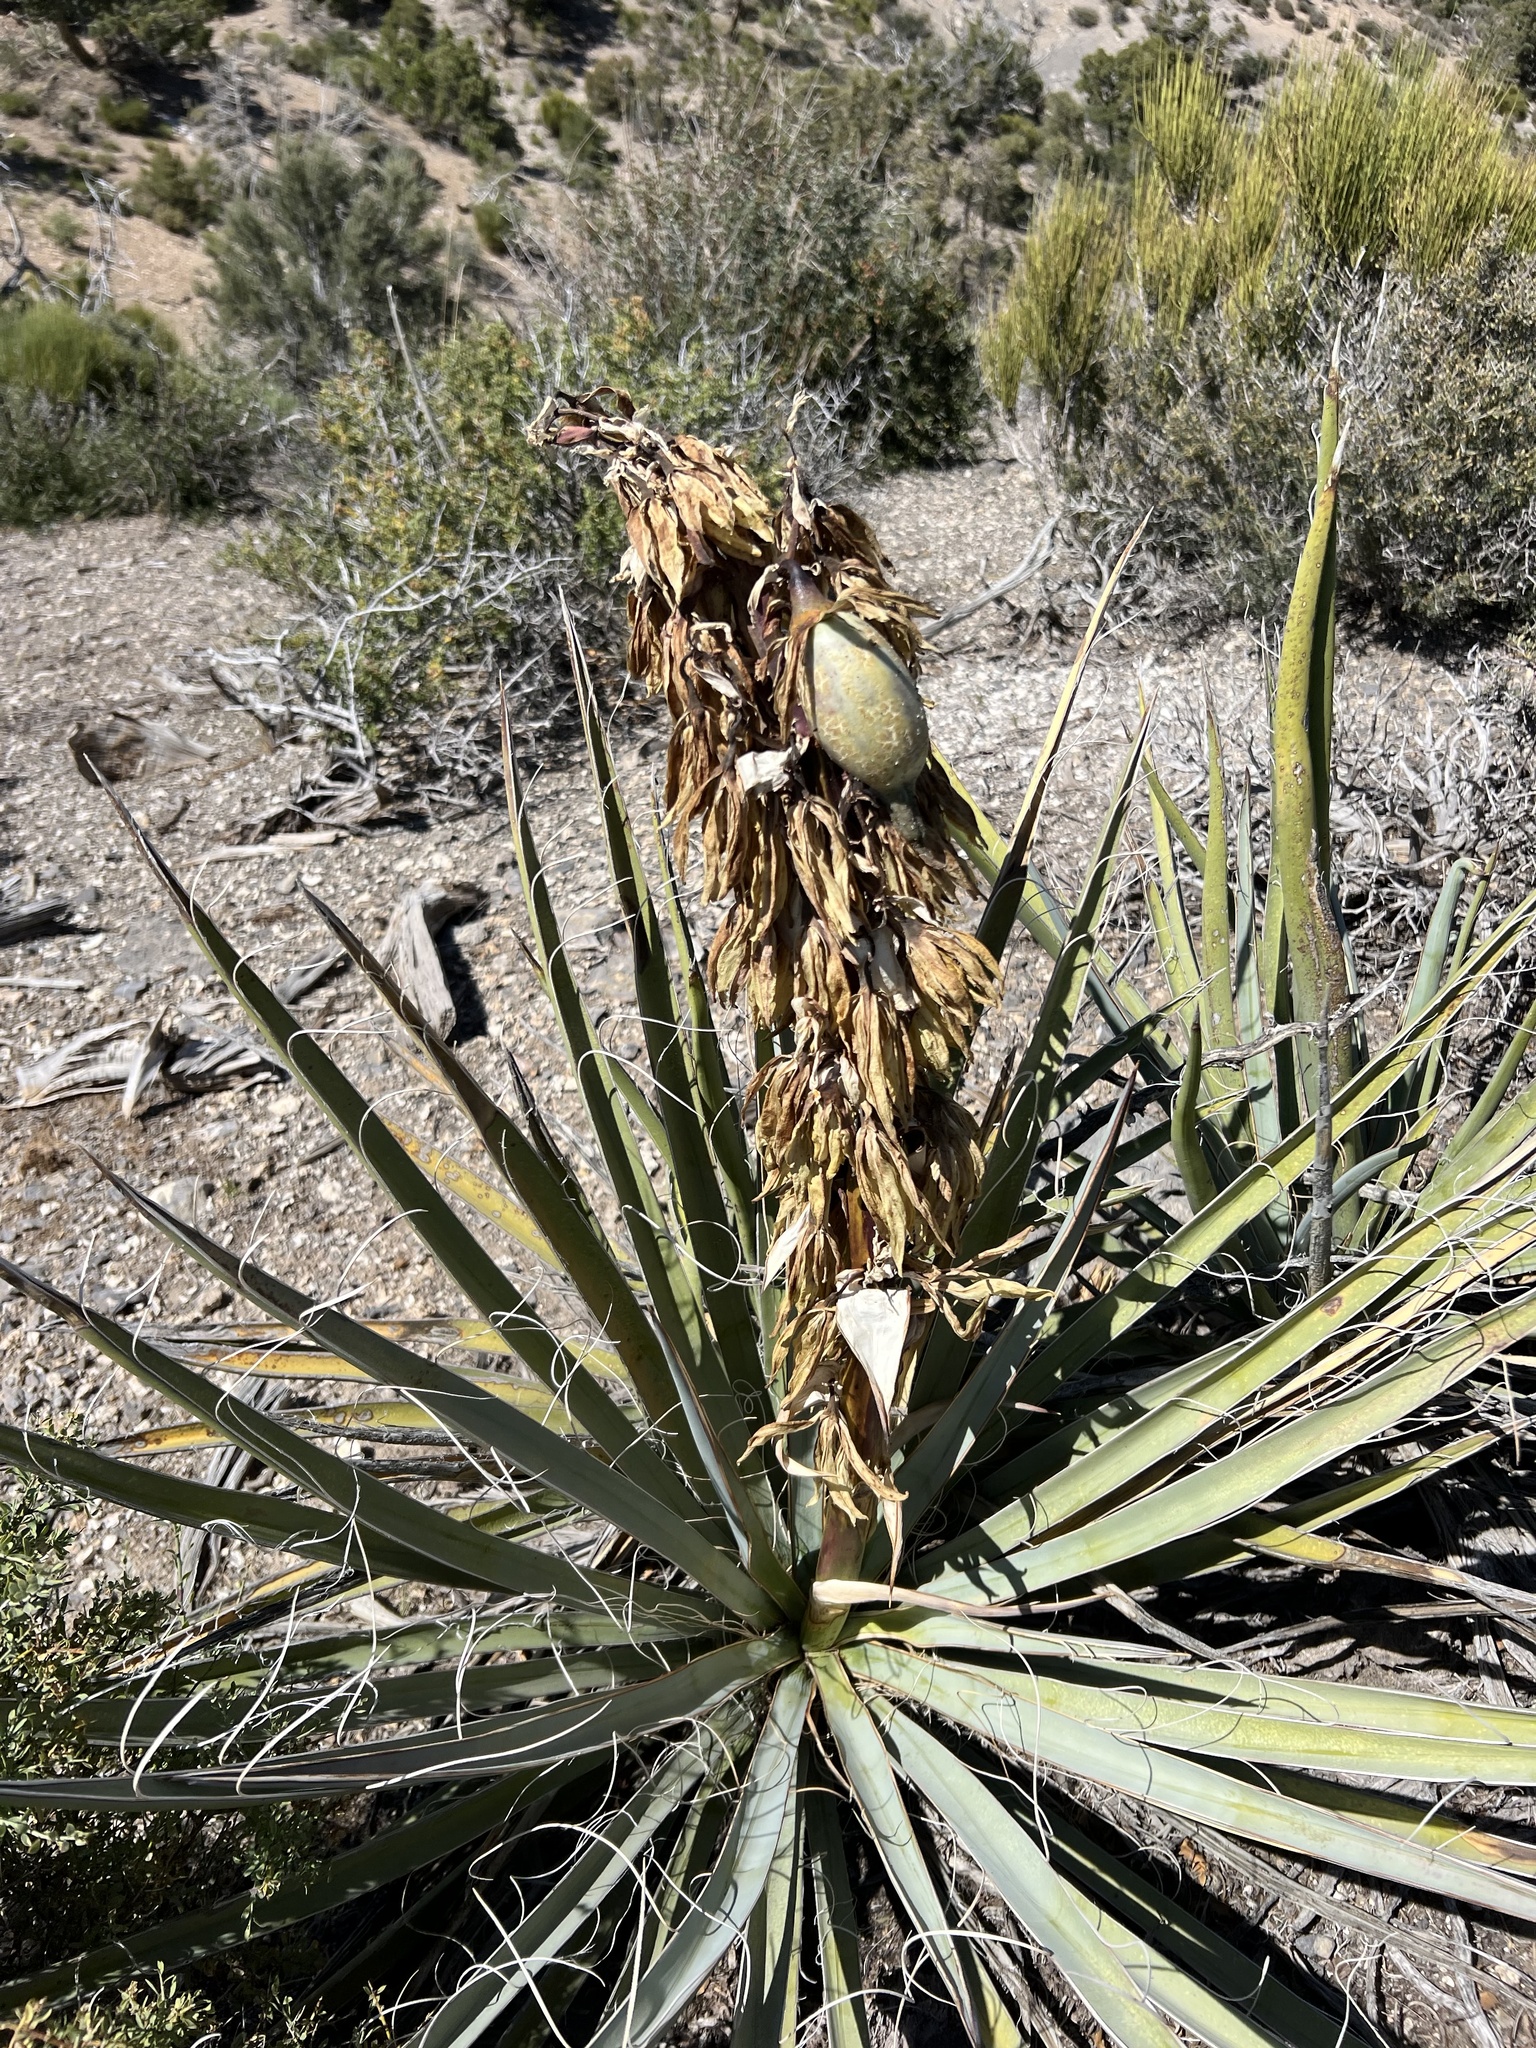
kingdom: Plantae
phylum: Tracheophyta
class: Liliopsida
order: Asparagales
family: Asparagaceae
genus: Yucca
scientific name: Yucca baccata
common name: Banana yucca
